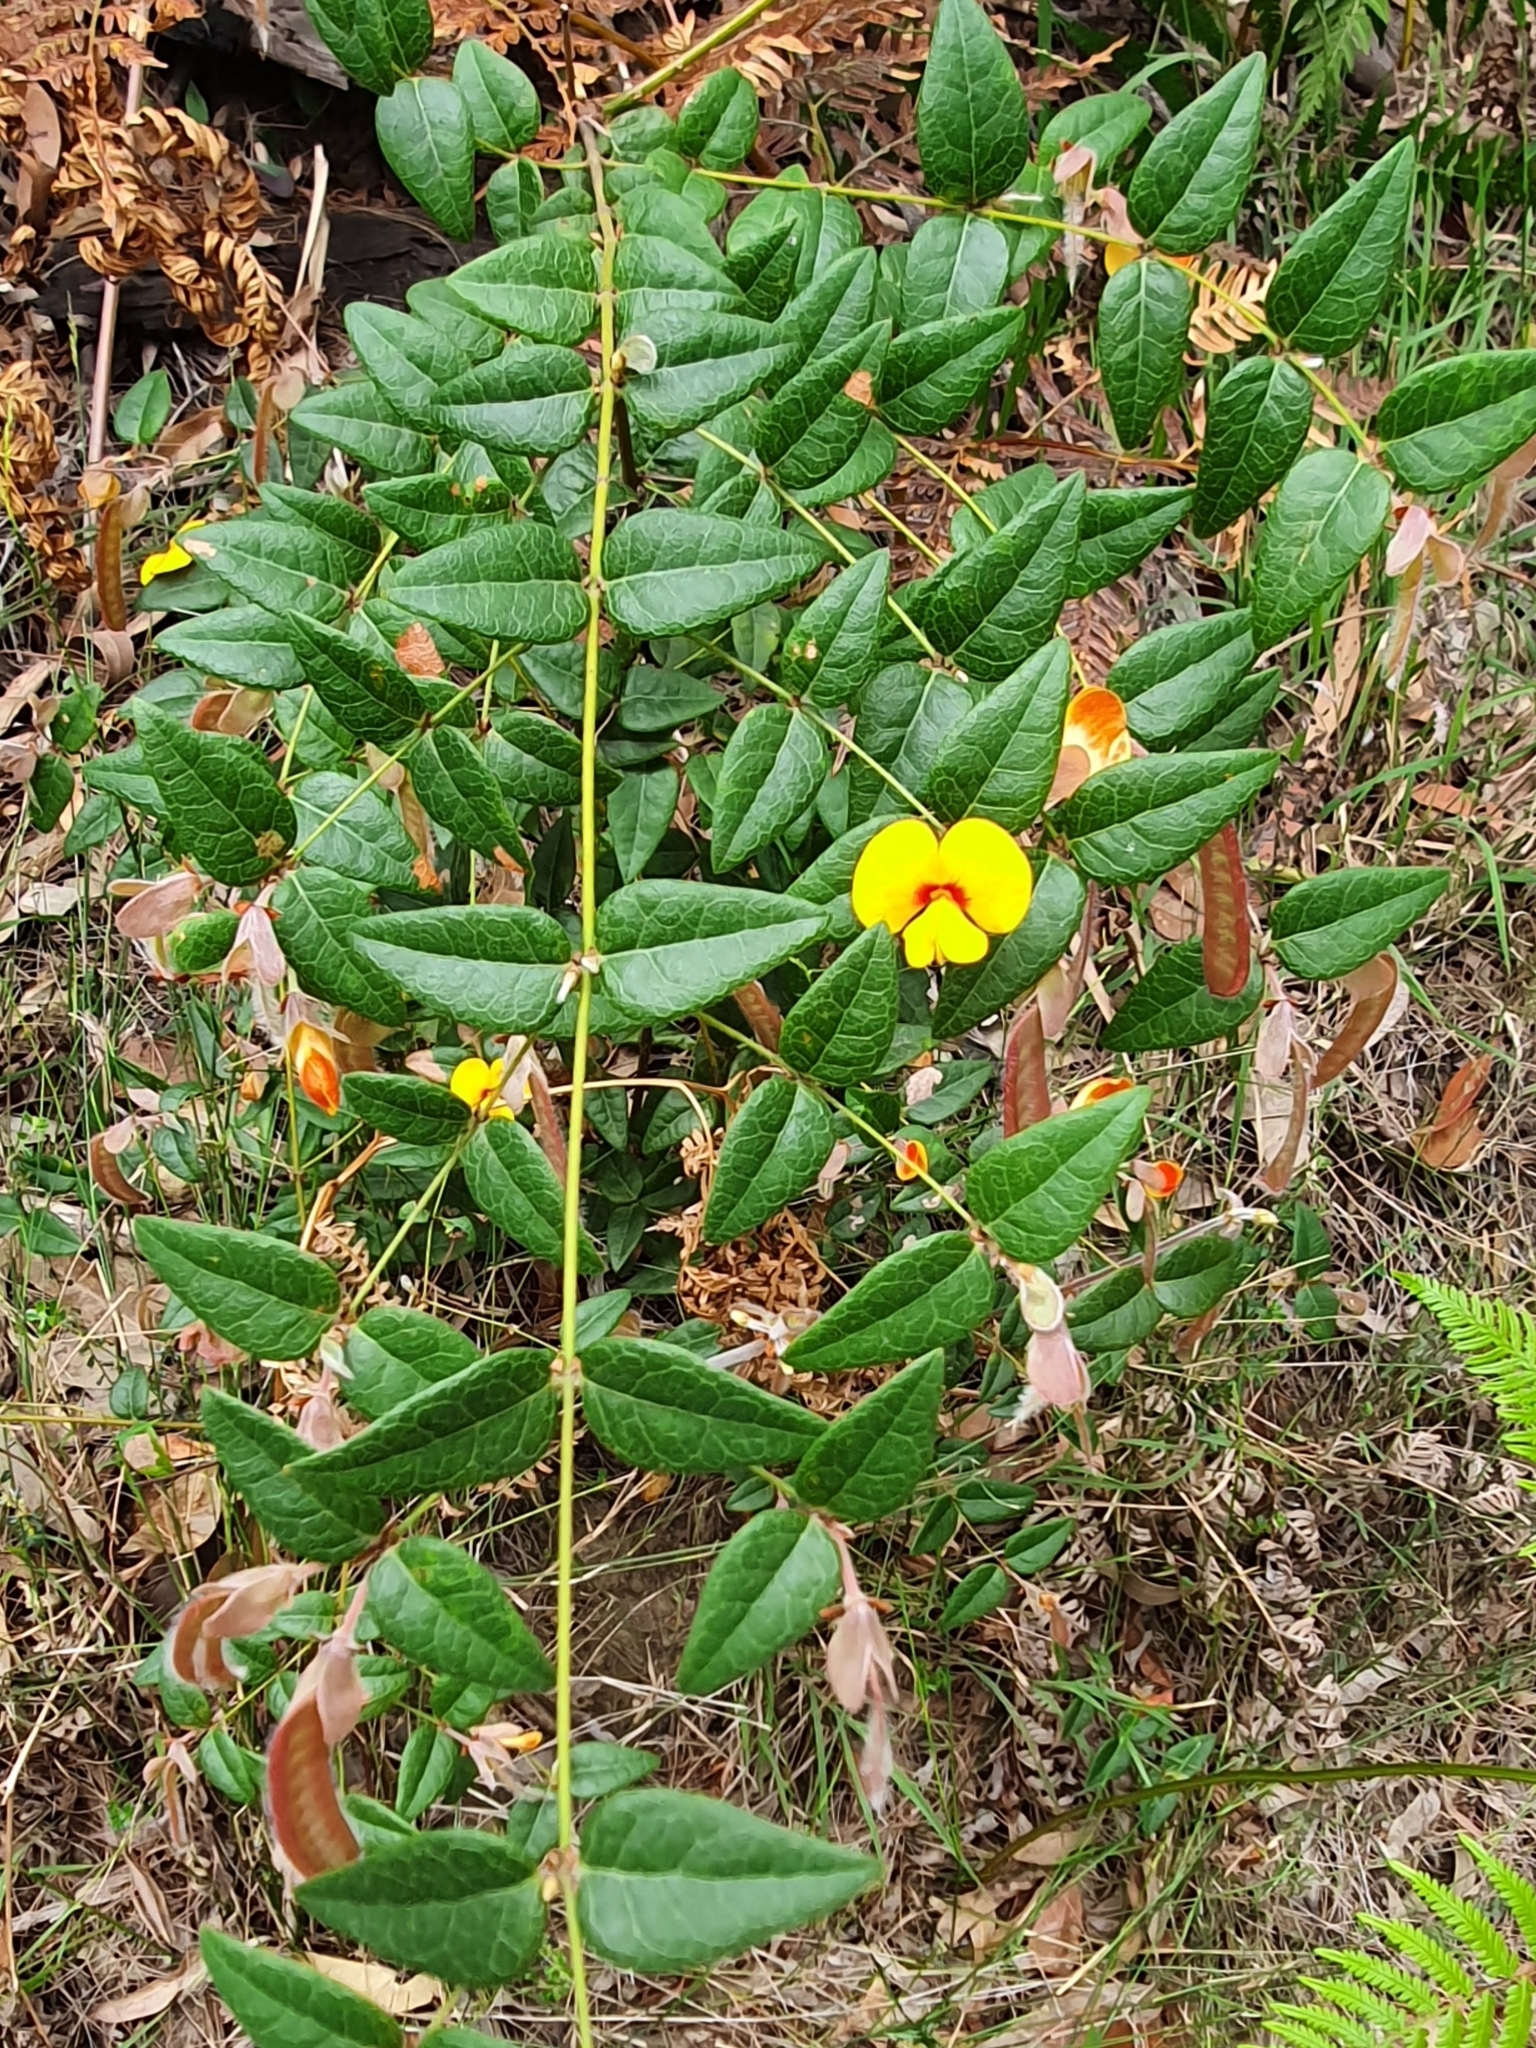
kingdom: Plantae
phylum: Tracheophyta
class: Magnoliopsida
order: Fabales
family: Fabaceae
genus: Platylobium
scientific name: Platylobium formosum
